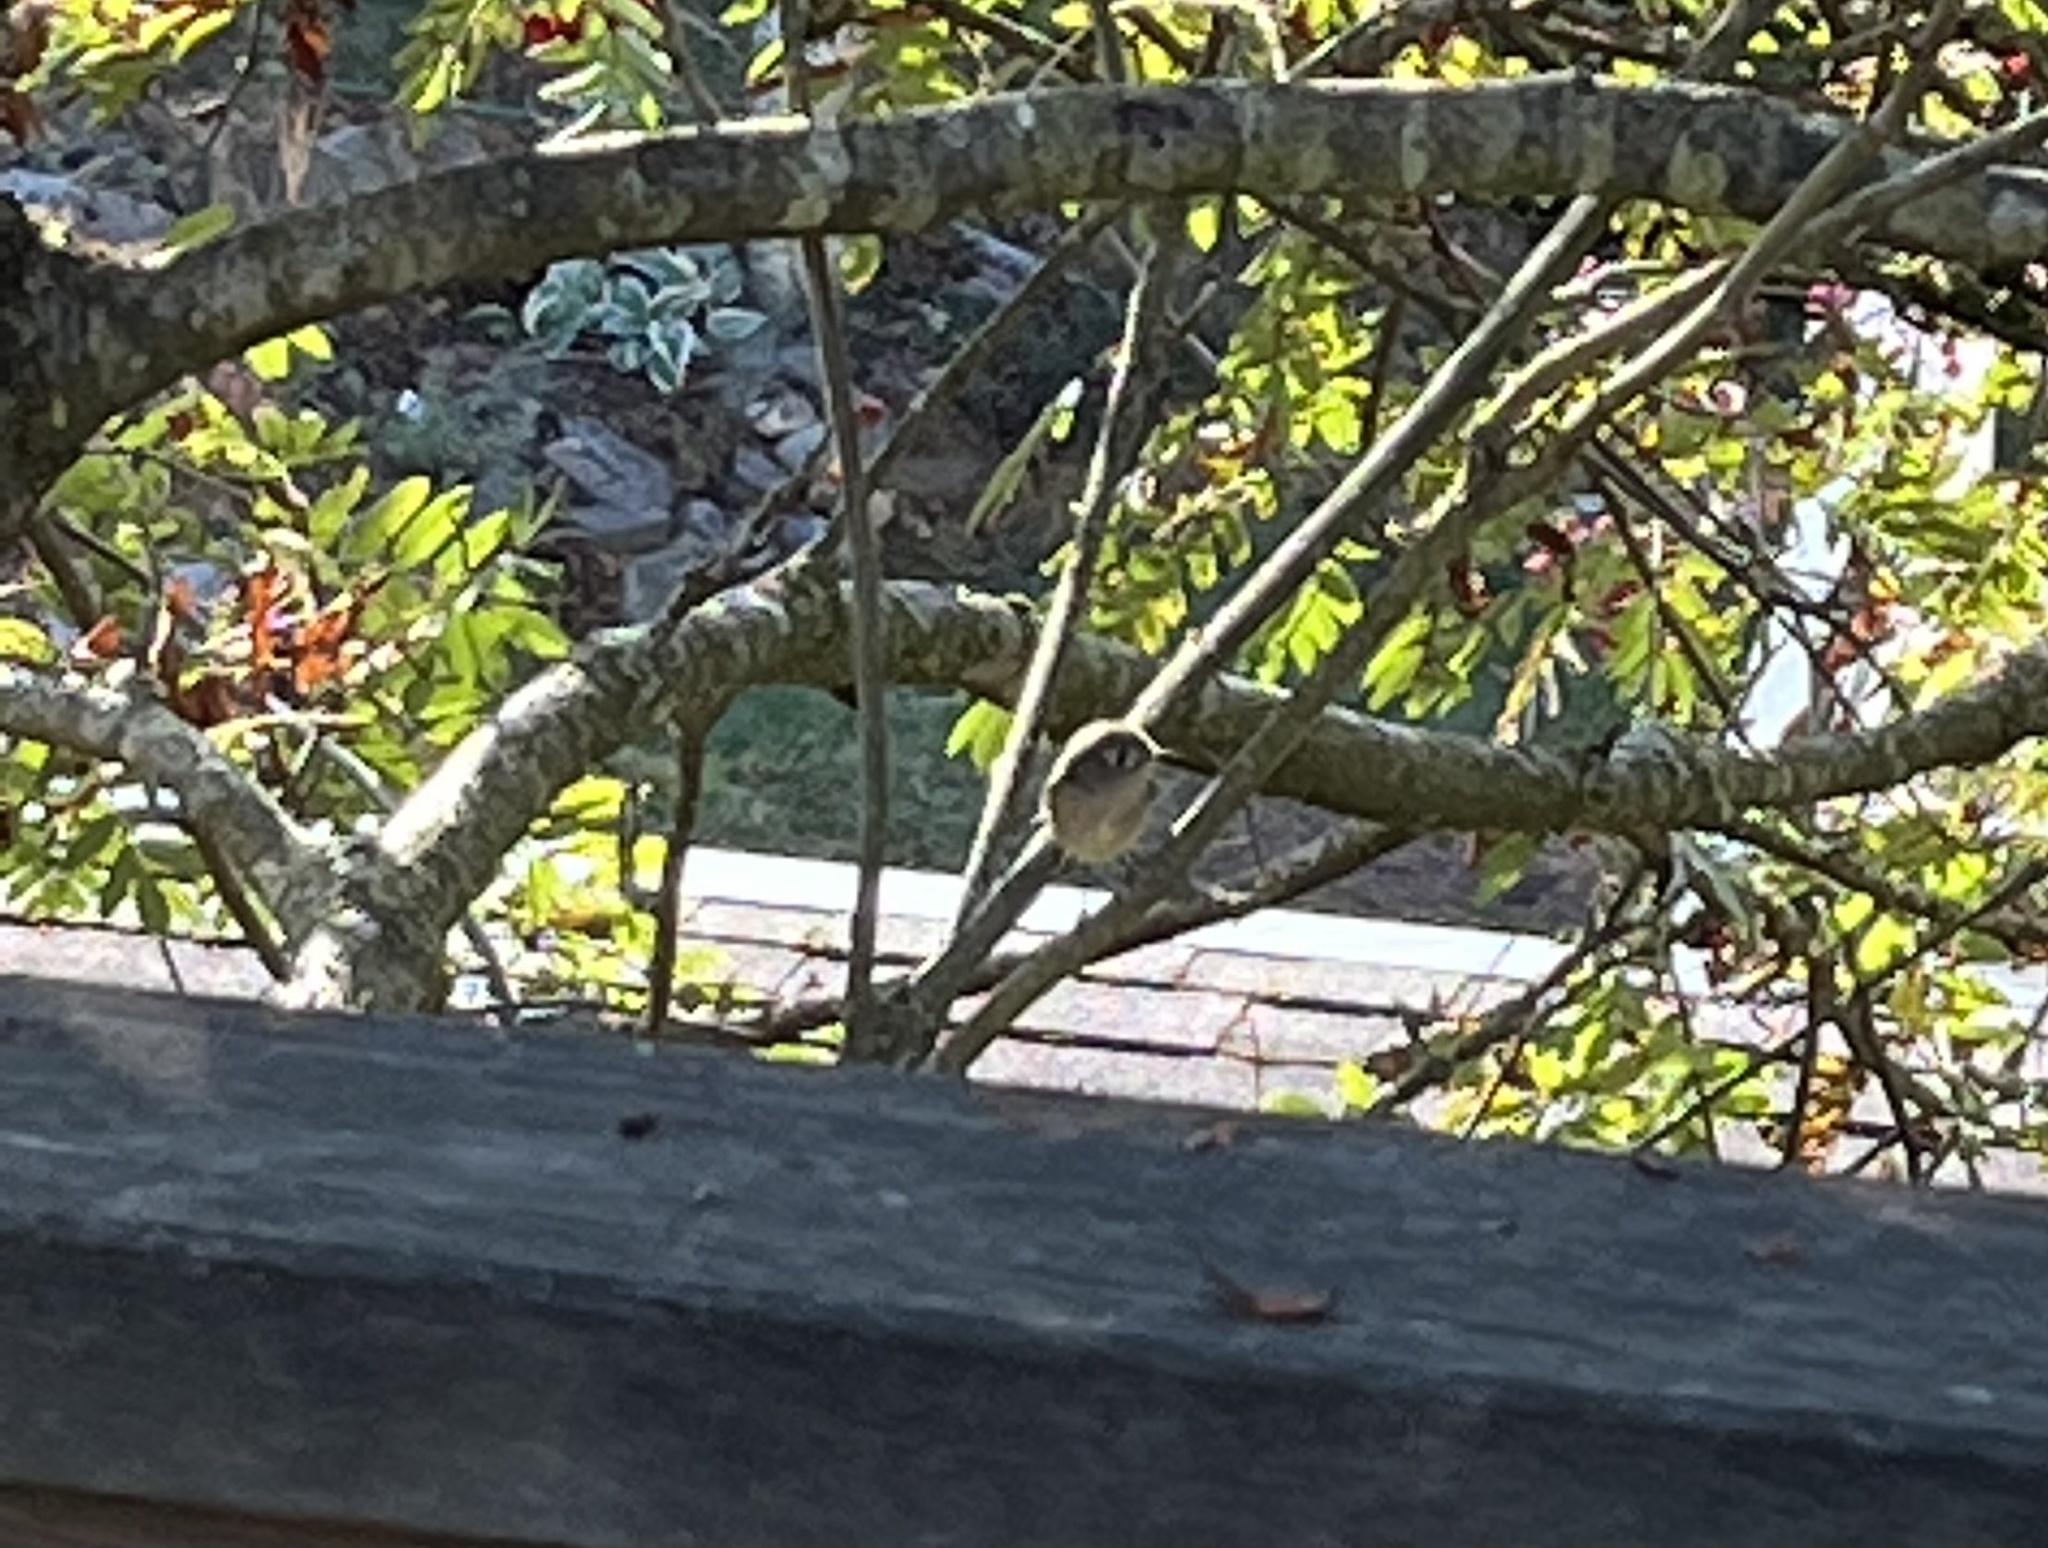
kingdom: Animalia
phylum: Chordata
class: Aves
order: Passeriformes
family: Regulidae
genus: Regulus
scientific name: Regulus calendula
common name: Ruby-crowned kinglet
